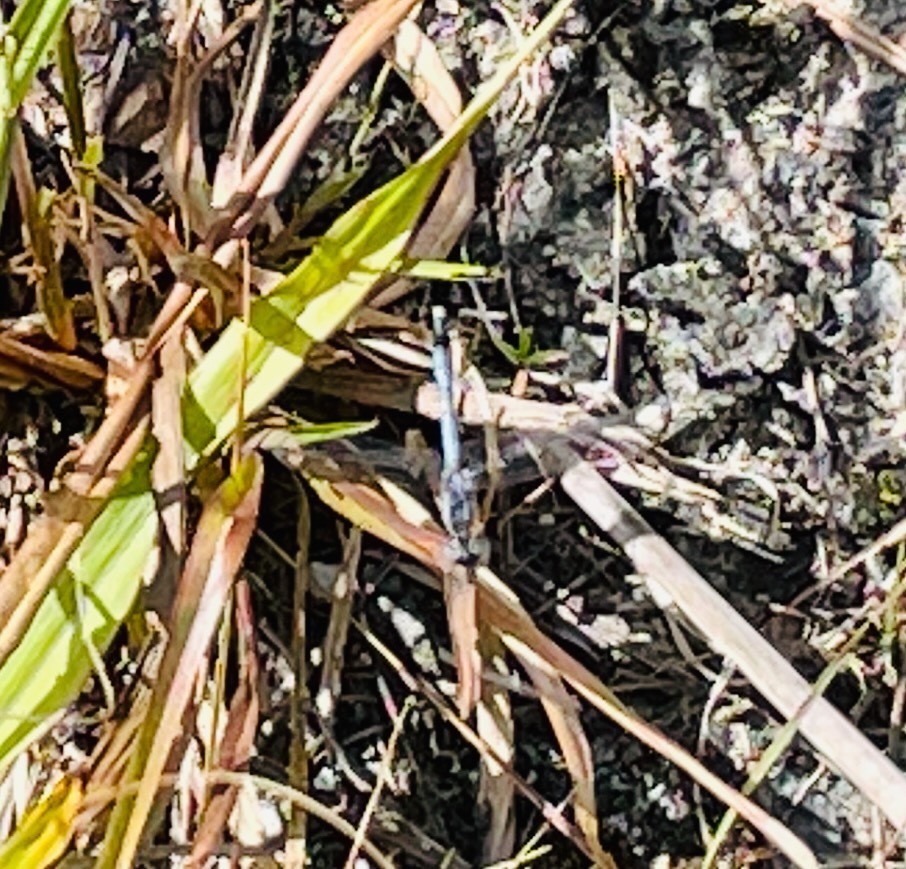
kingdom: Animalia
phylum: Arthropoda
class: Insecta
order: Odonata
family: Libellulidae
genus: Erythrodiplax
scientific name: Erythrodiplax minuscula
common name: Little blue dragonlet
